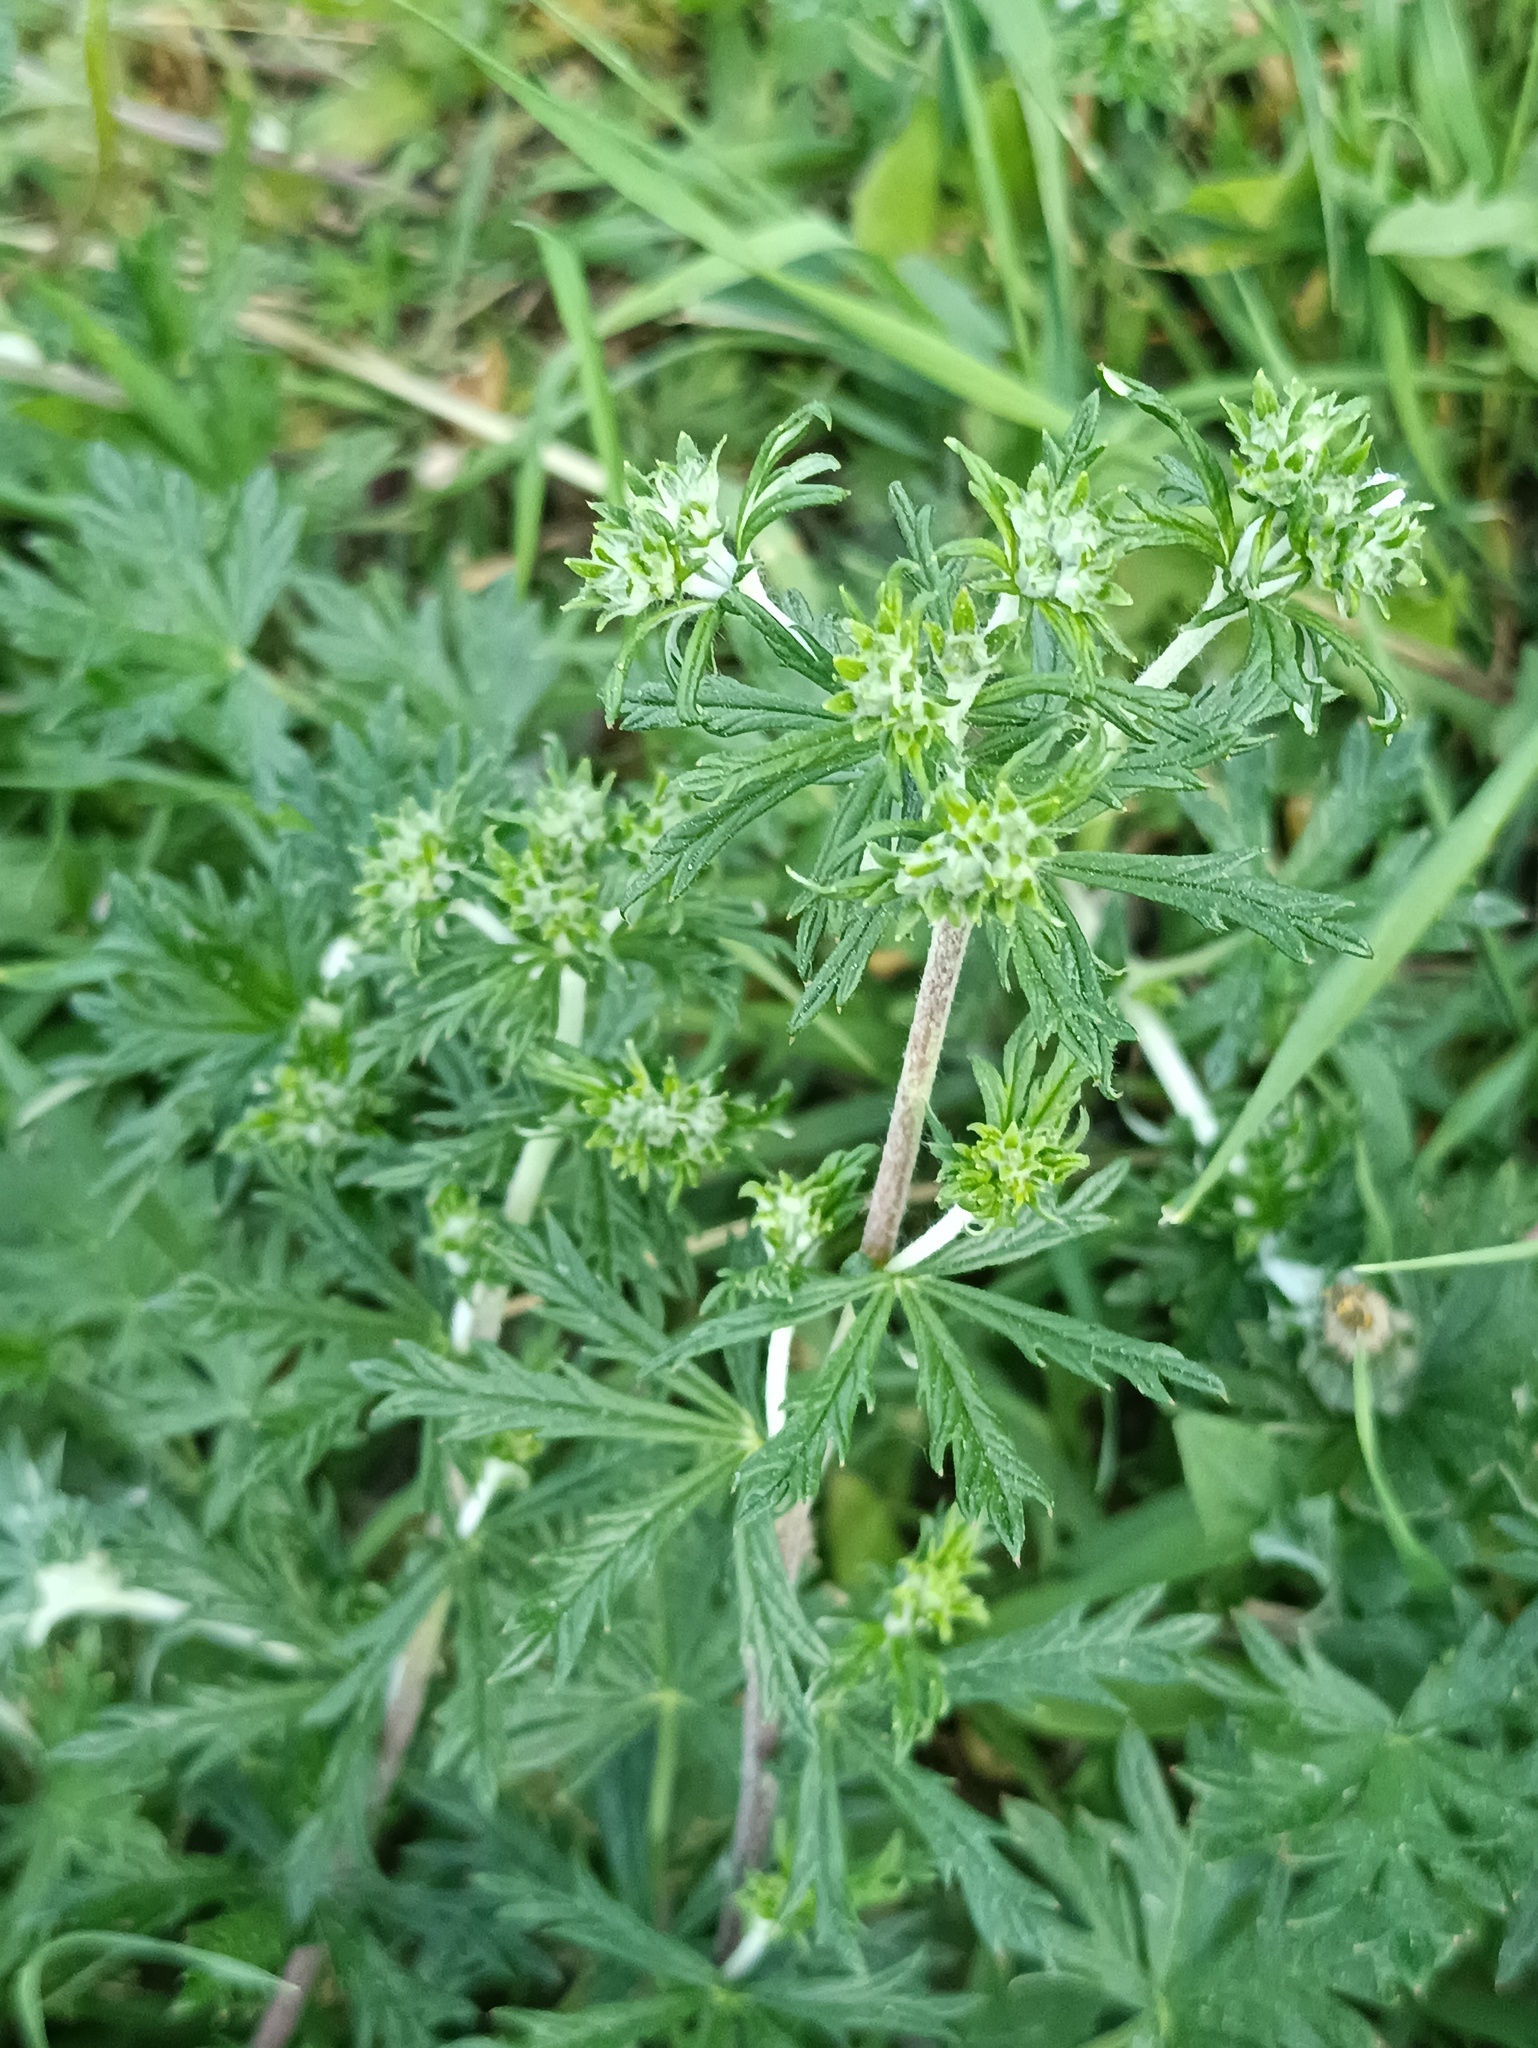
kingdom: Plantae
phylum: Tracheophyta
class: Magnoliopsida
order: Rosales
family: Rosaceae
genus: Potentilla
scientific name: Potentilla argentea
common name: Hoary cinquefoil
